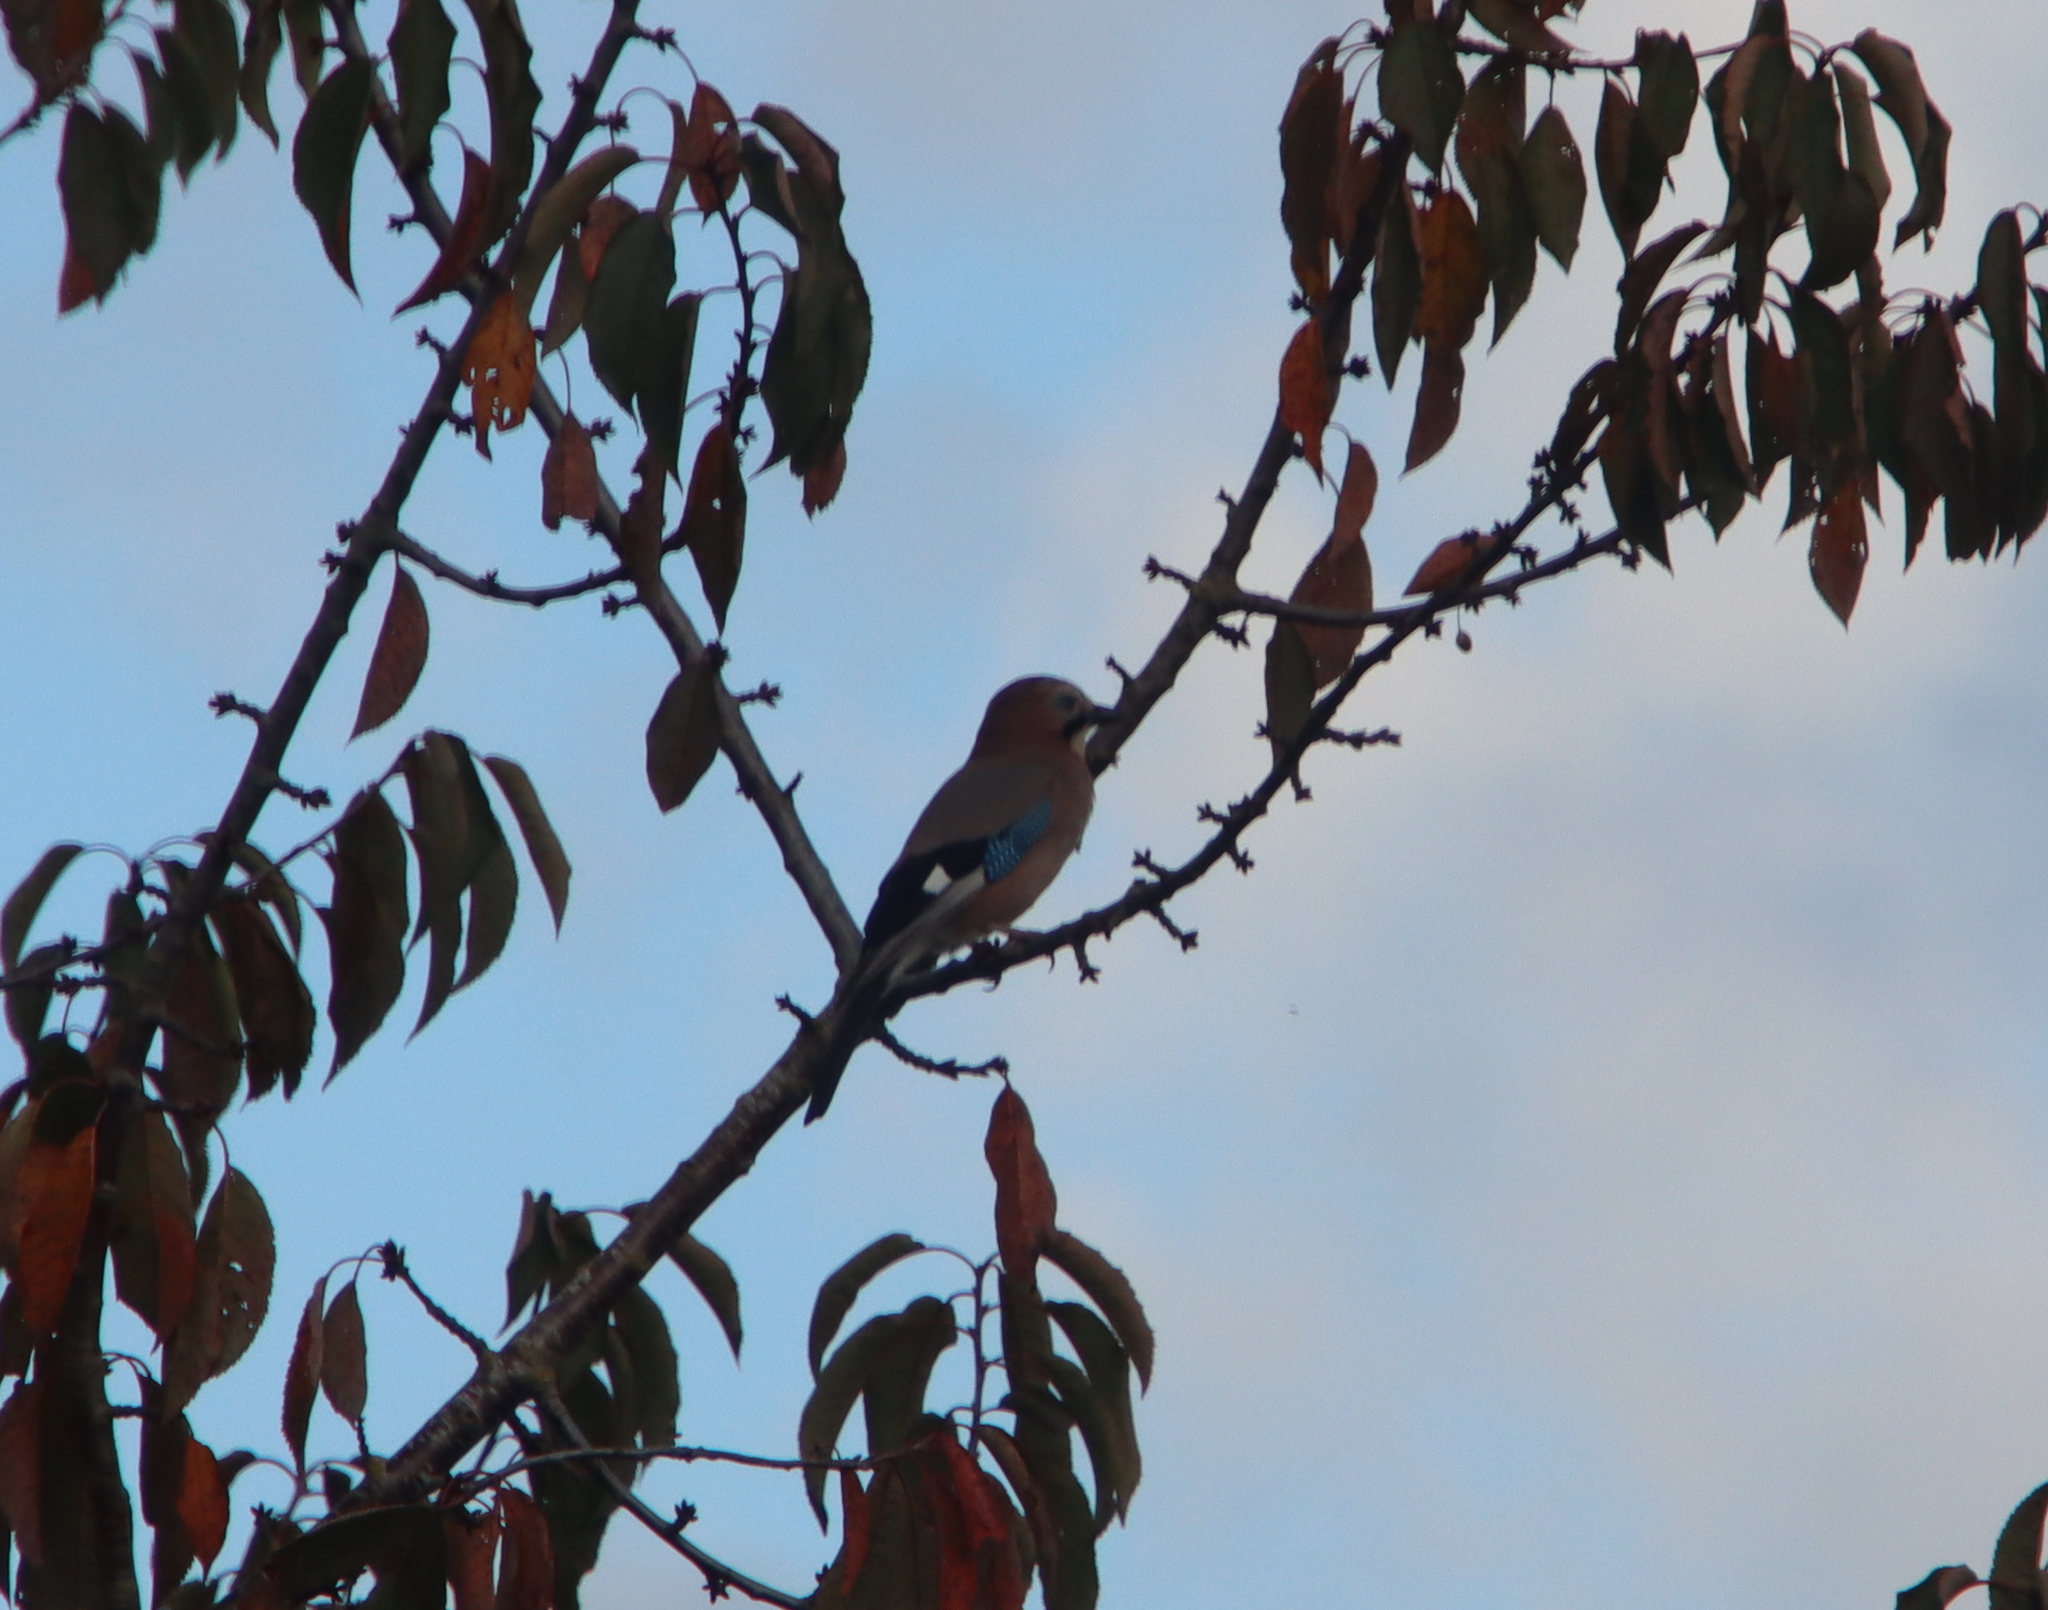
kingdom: Animalia
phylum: Chordata
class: Aves
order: Passeriformes
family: Corvidae
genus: Garrulus
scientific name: Garrulus glandarius
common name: Eurasian jay
